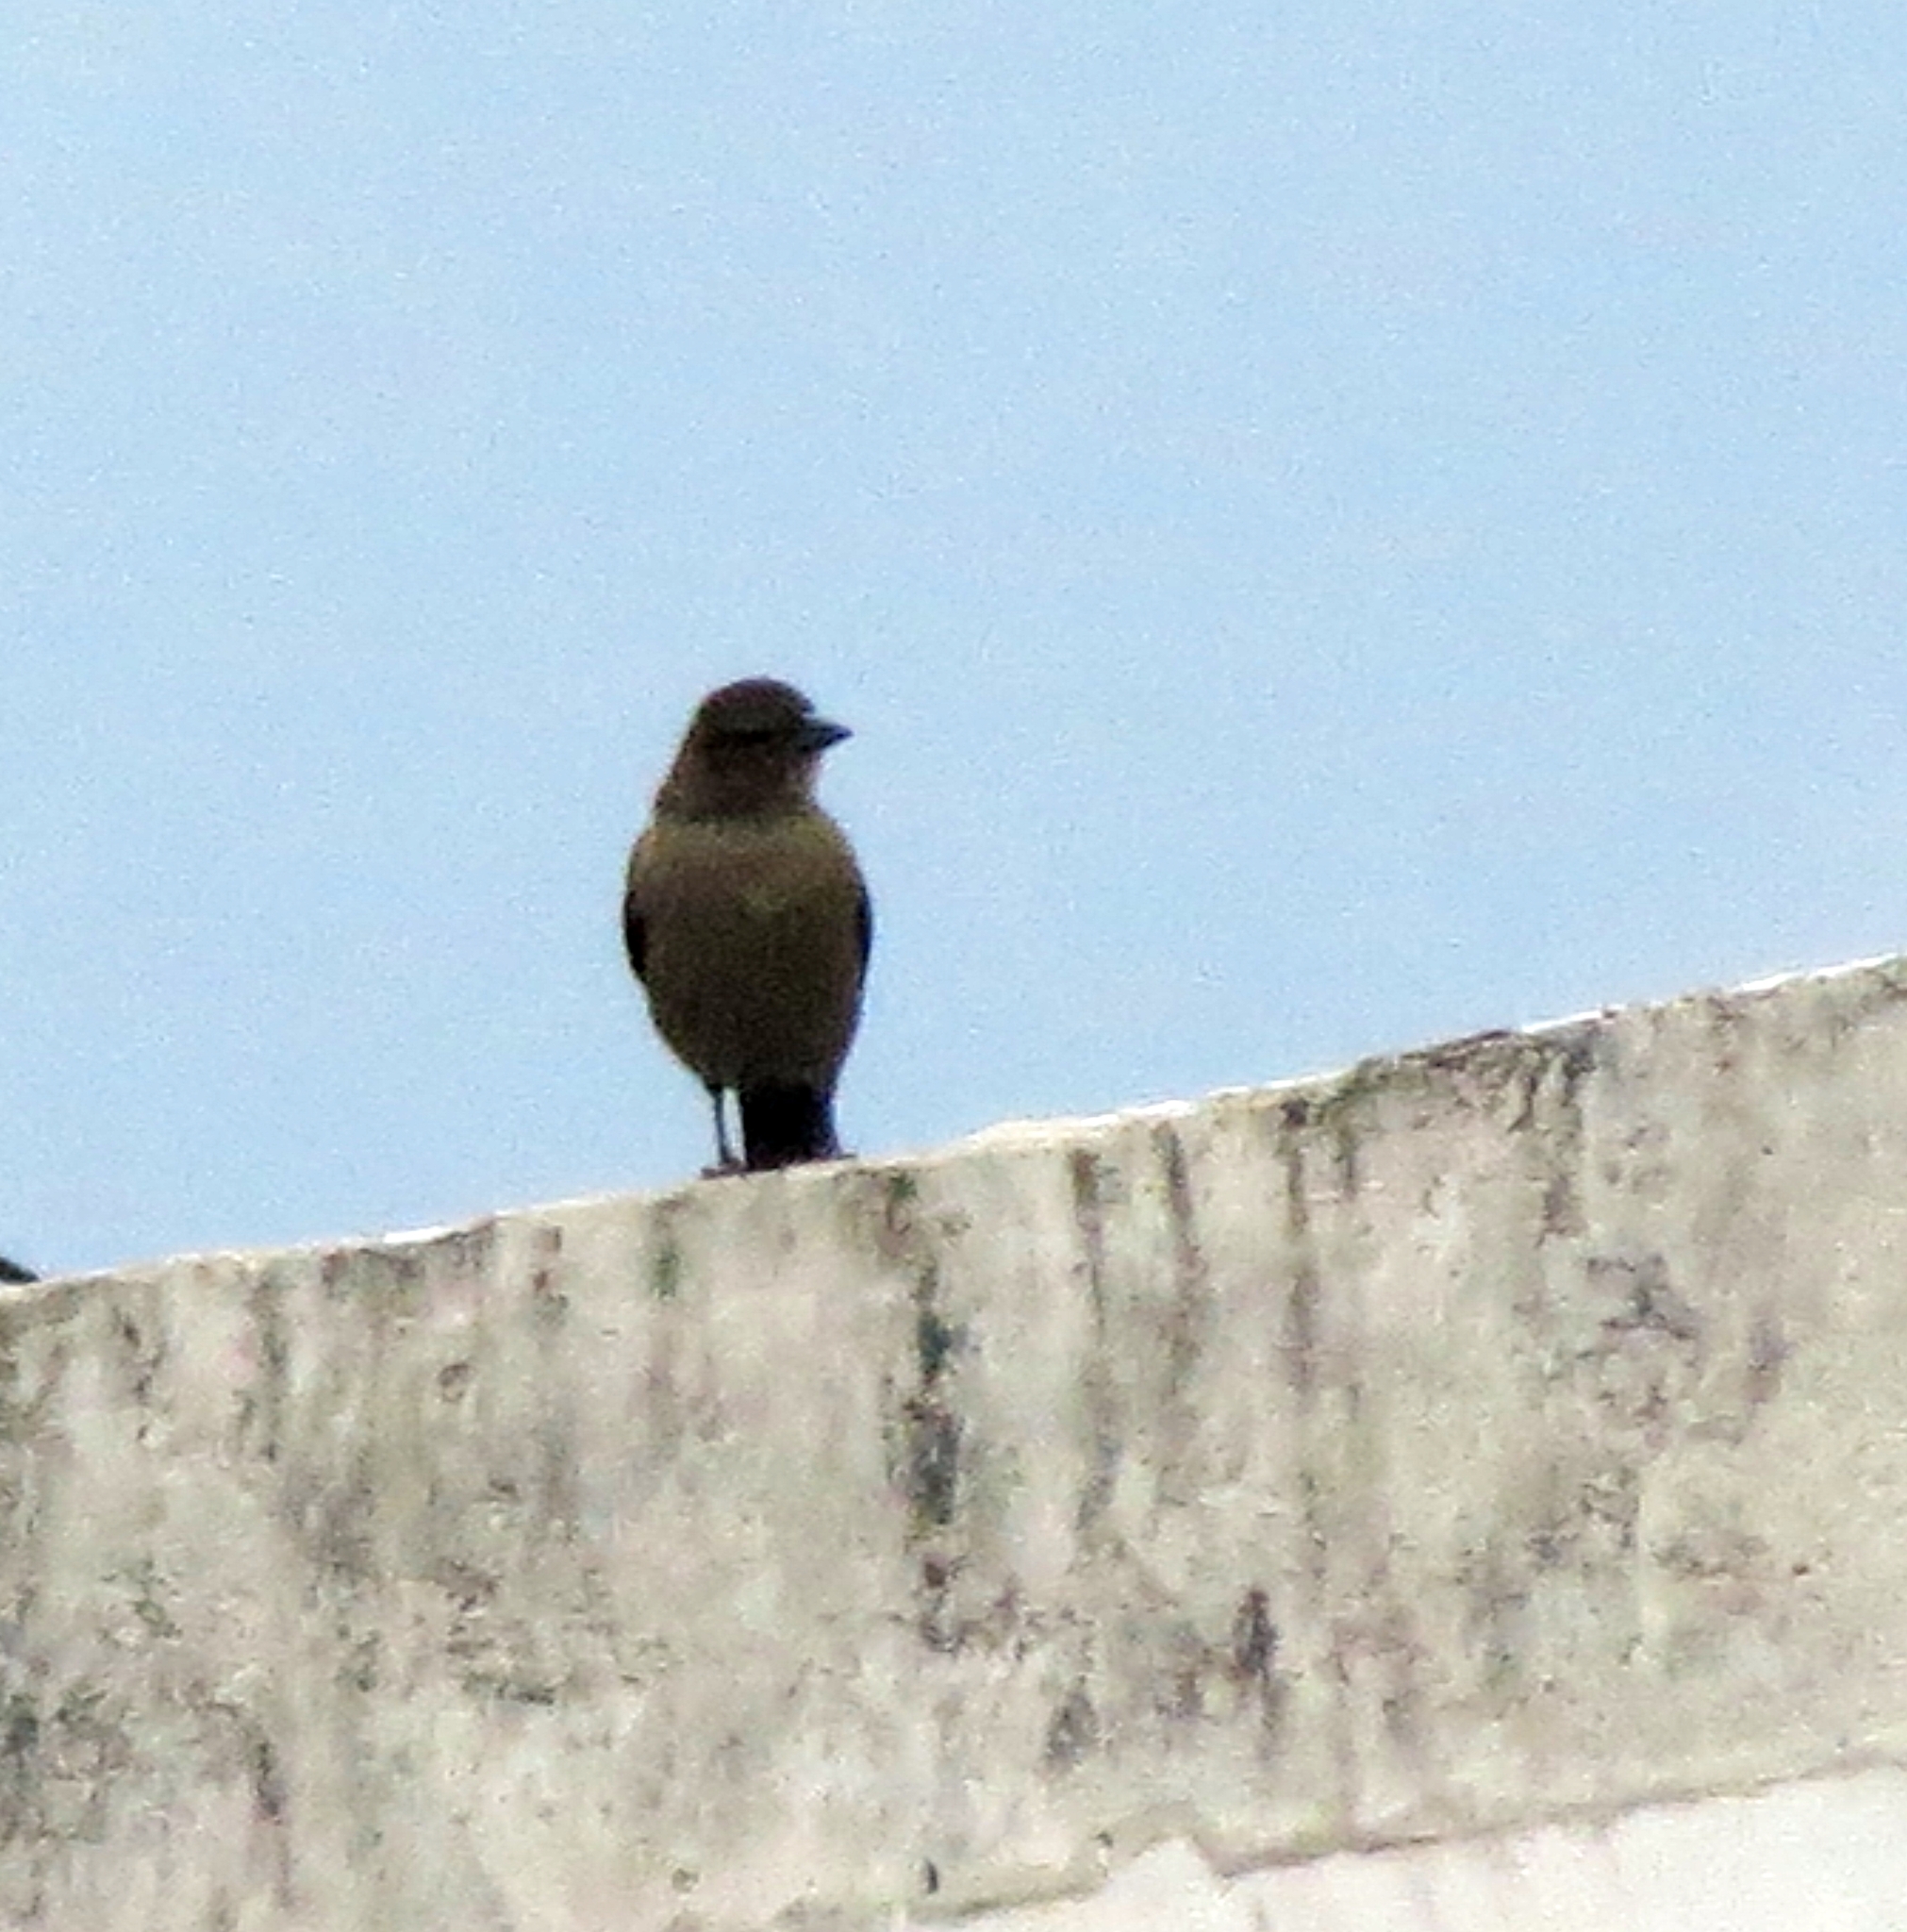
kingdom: Animalia
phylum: Chordata
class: Aves
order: Passeriformes
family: Icteridae
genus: Molothrus
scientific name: Molothrus bonariensis
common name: Shiny cowbird
